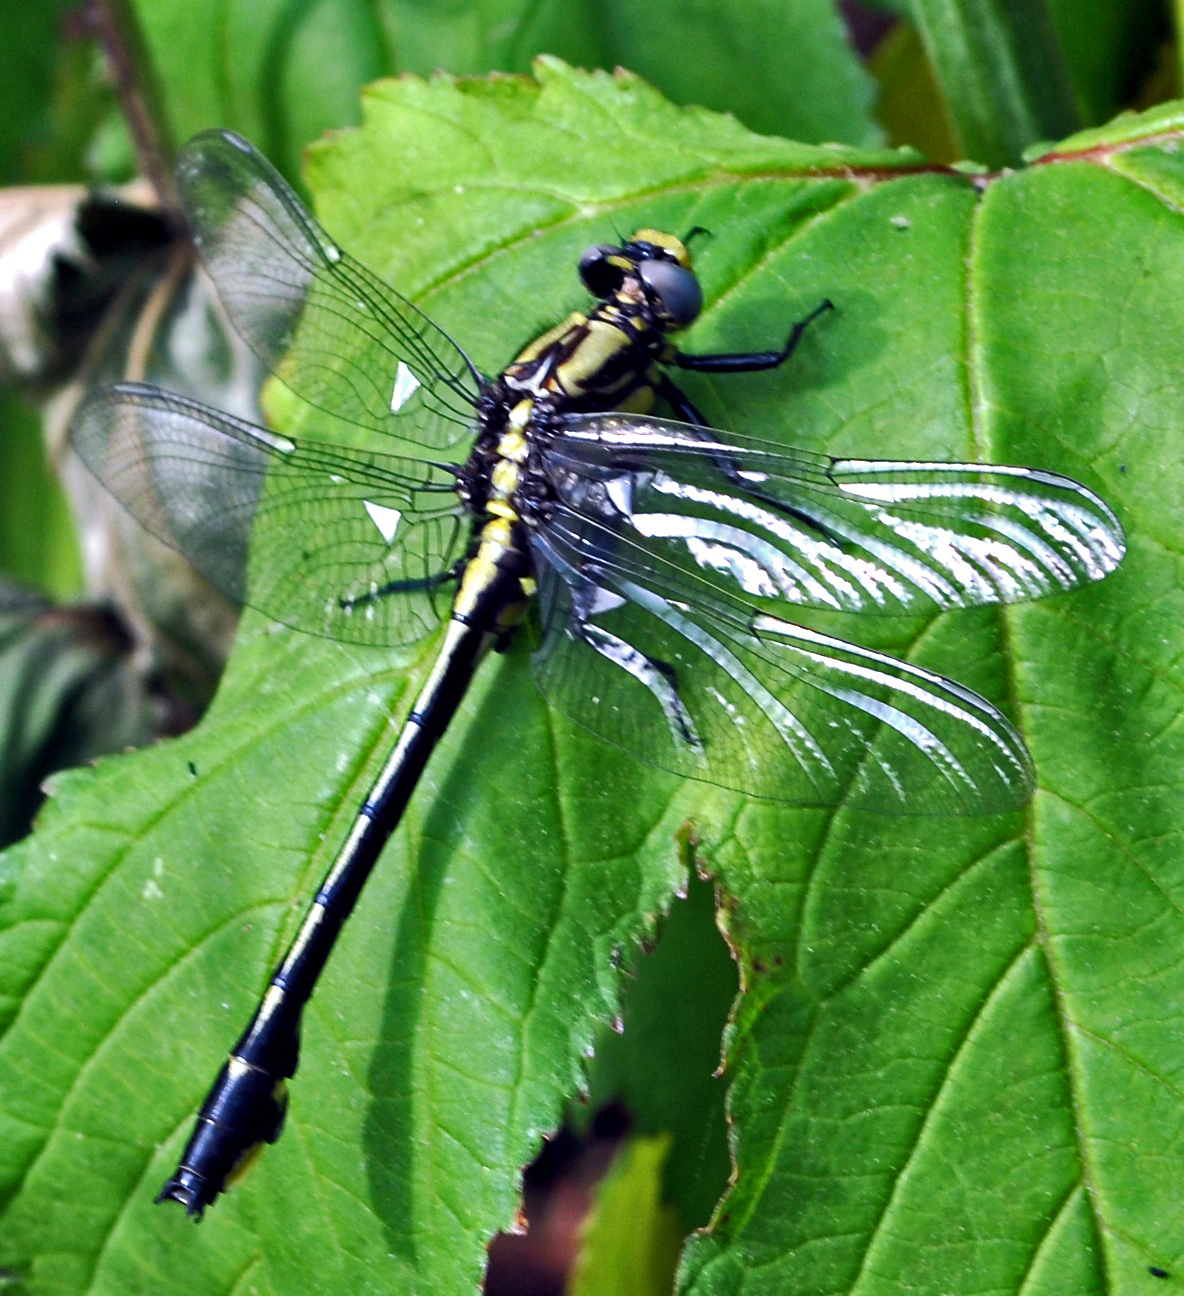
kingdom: Animalia
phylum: Arthropoda
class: Insecta
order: Odonata
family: Gomphidae
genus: Gomphurus
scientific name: Gomphurus fraternus
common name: Midland clubtail
